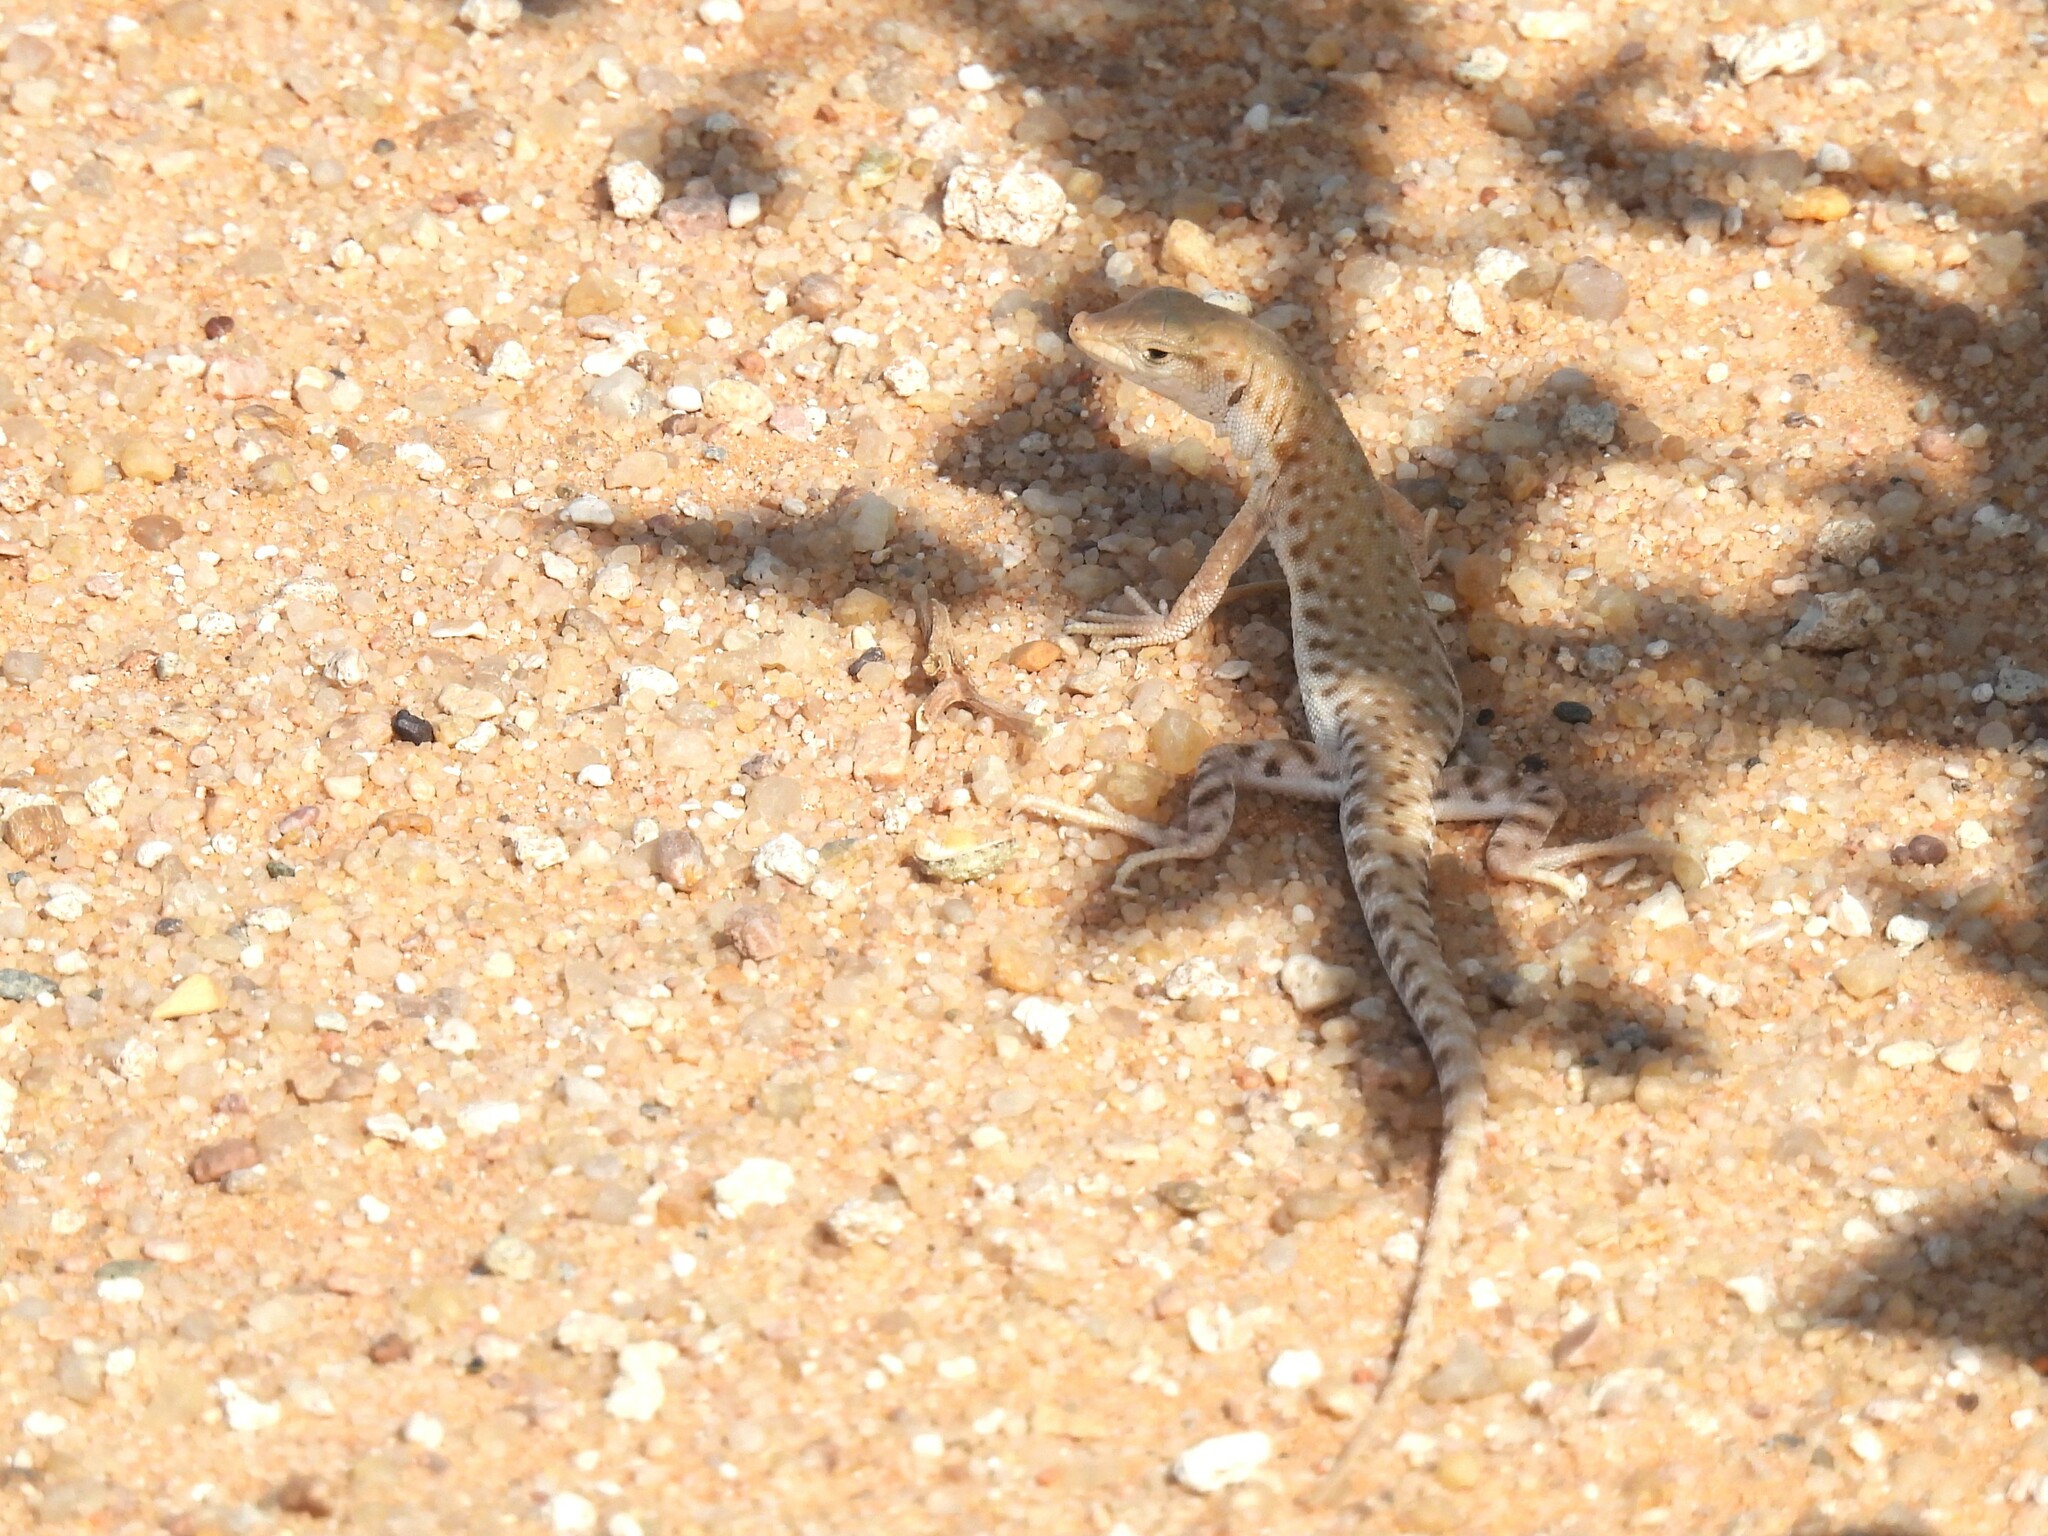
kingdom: Animalia
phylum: Chordata
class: Squamata
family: Lacertidae
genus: Mesalina
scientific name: Mesalina brevirostris
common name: Blanford's short-nosed desert lizard
